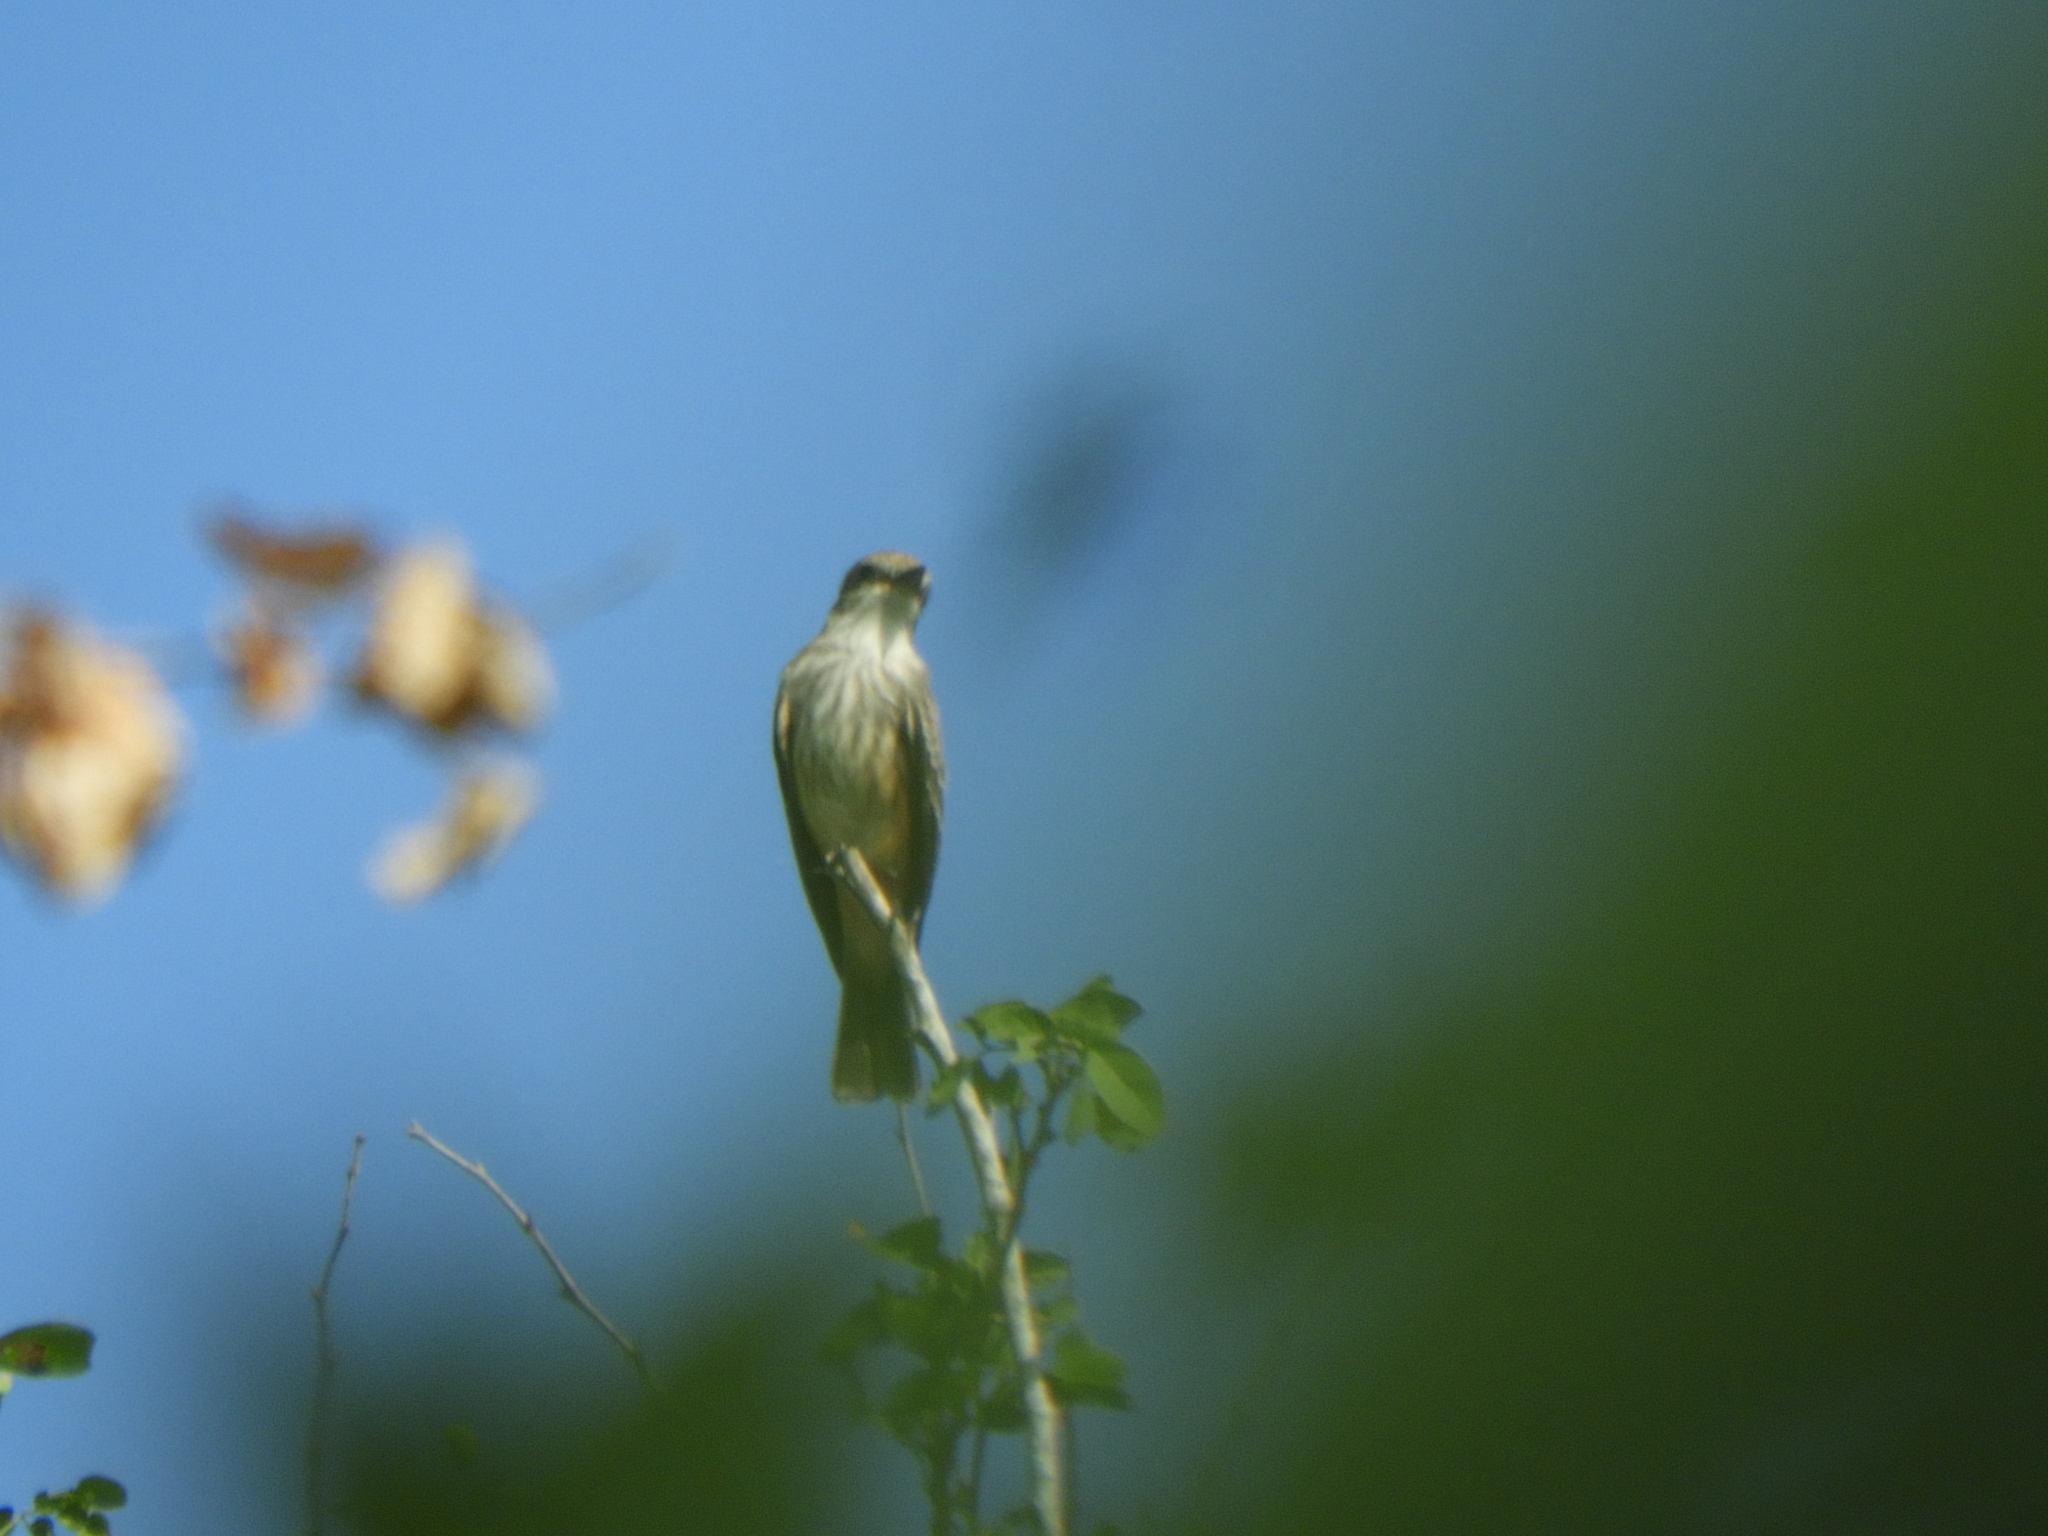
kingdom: Animalia
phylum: Chordata
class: Aves
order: Passeriformes
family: Tyrannidae
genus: Pyrocephalus
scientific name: Pyrocephalus rubinus
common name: Vermilion flycatcher
